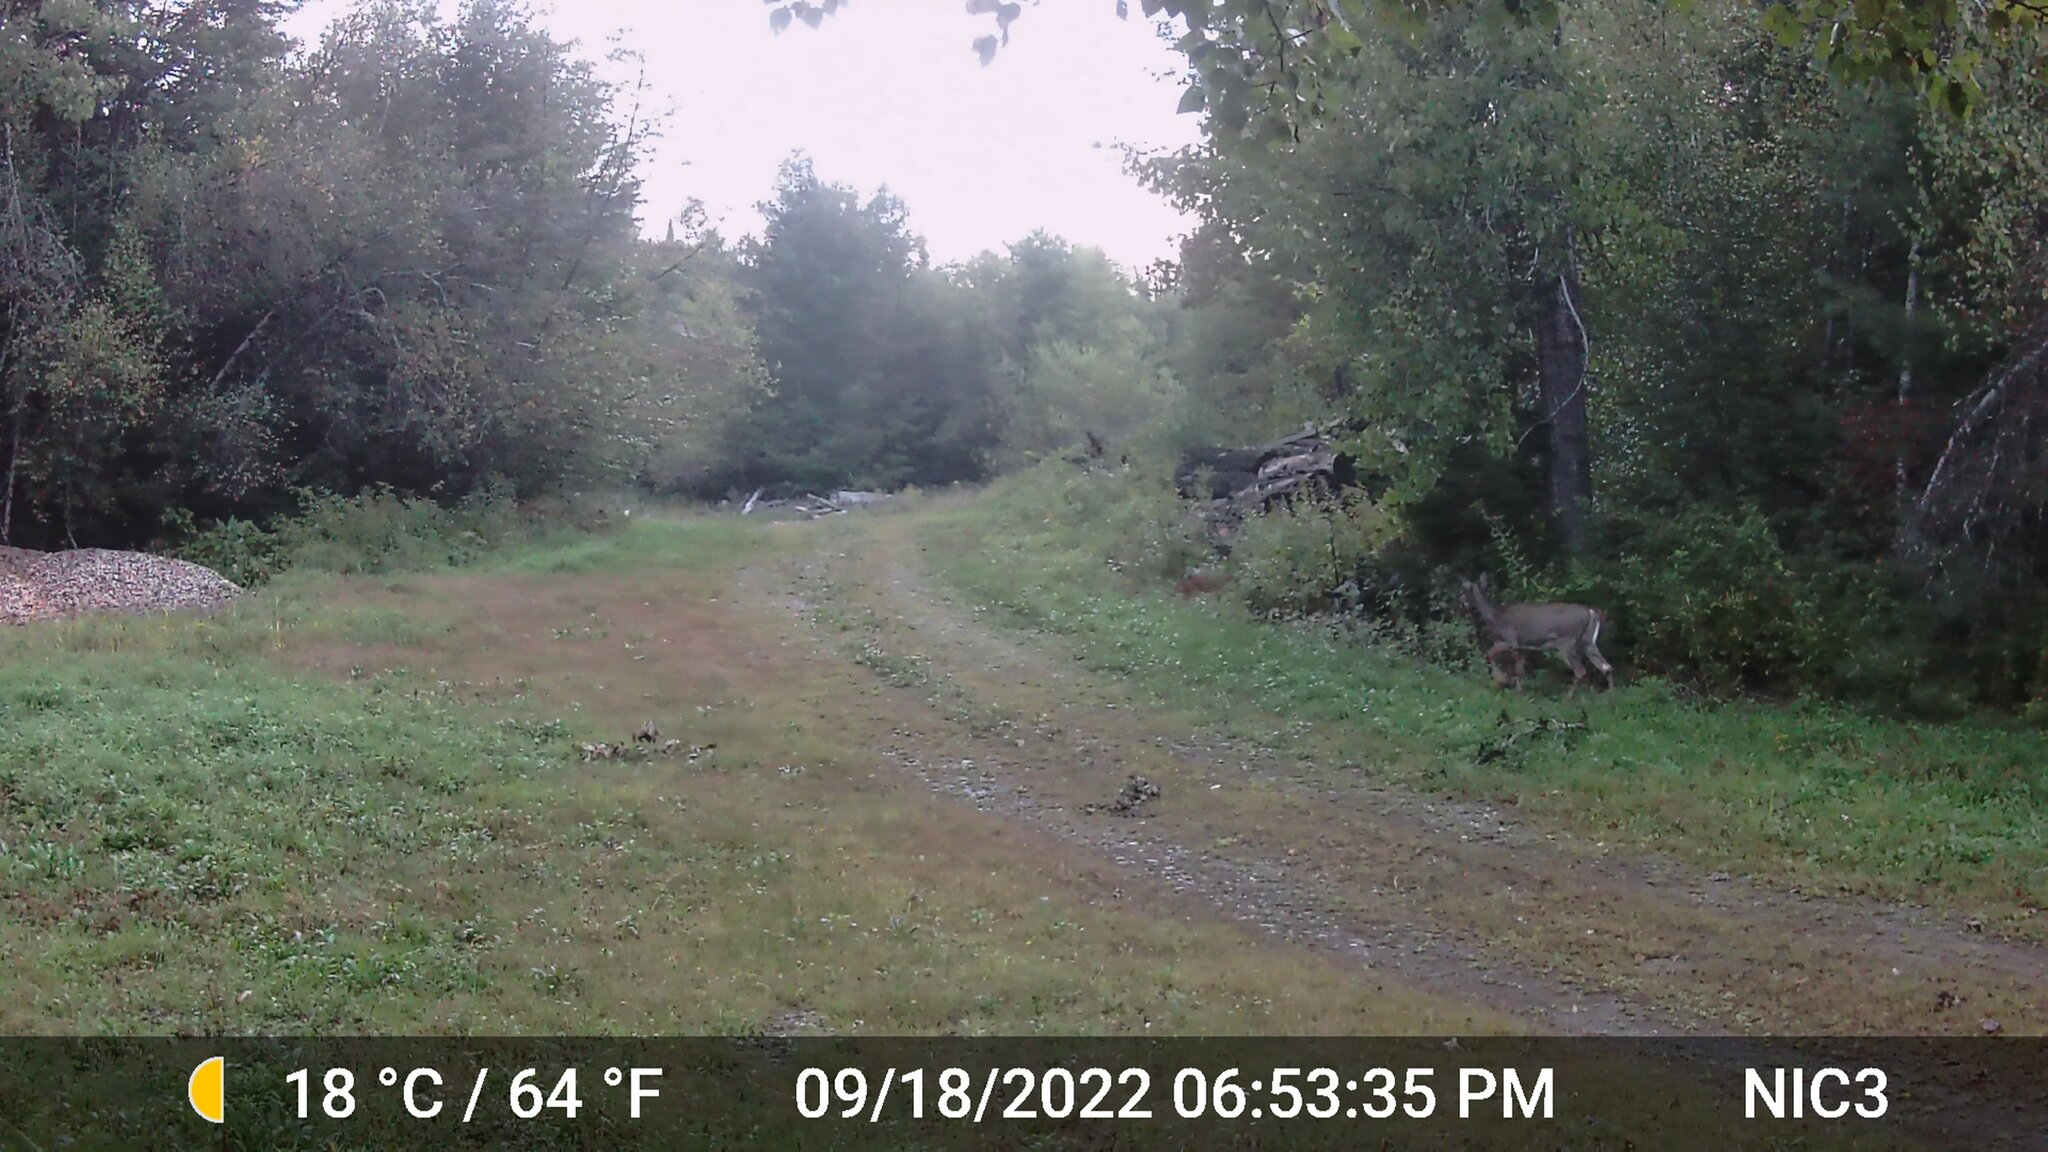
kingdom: Animalia
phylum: Chordata
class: Mammalia
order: Artiodactyla
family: Cervidae
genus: Odocoileus
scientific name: Odocoileus virginianus
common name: White-tailed deer
